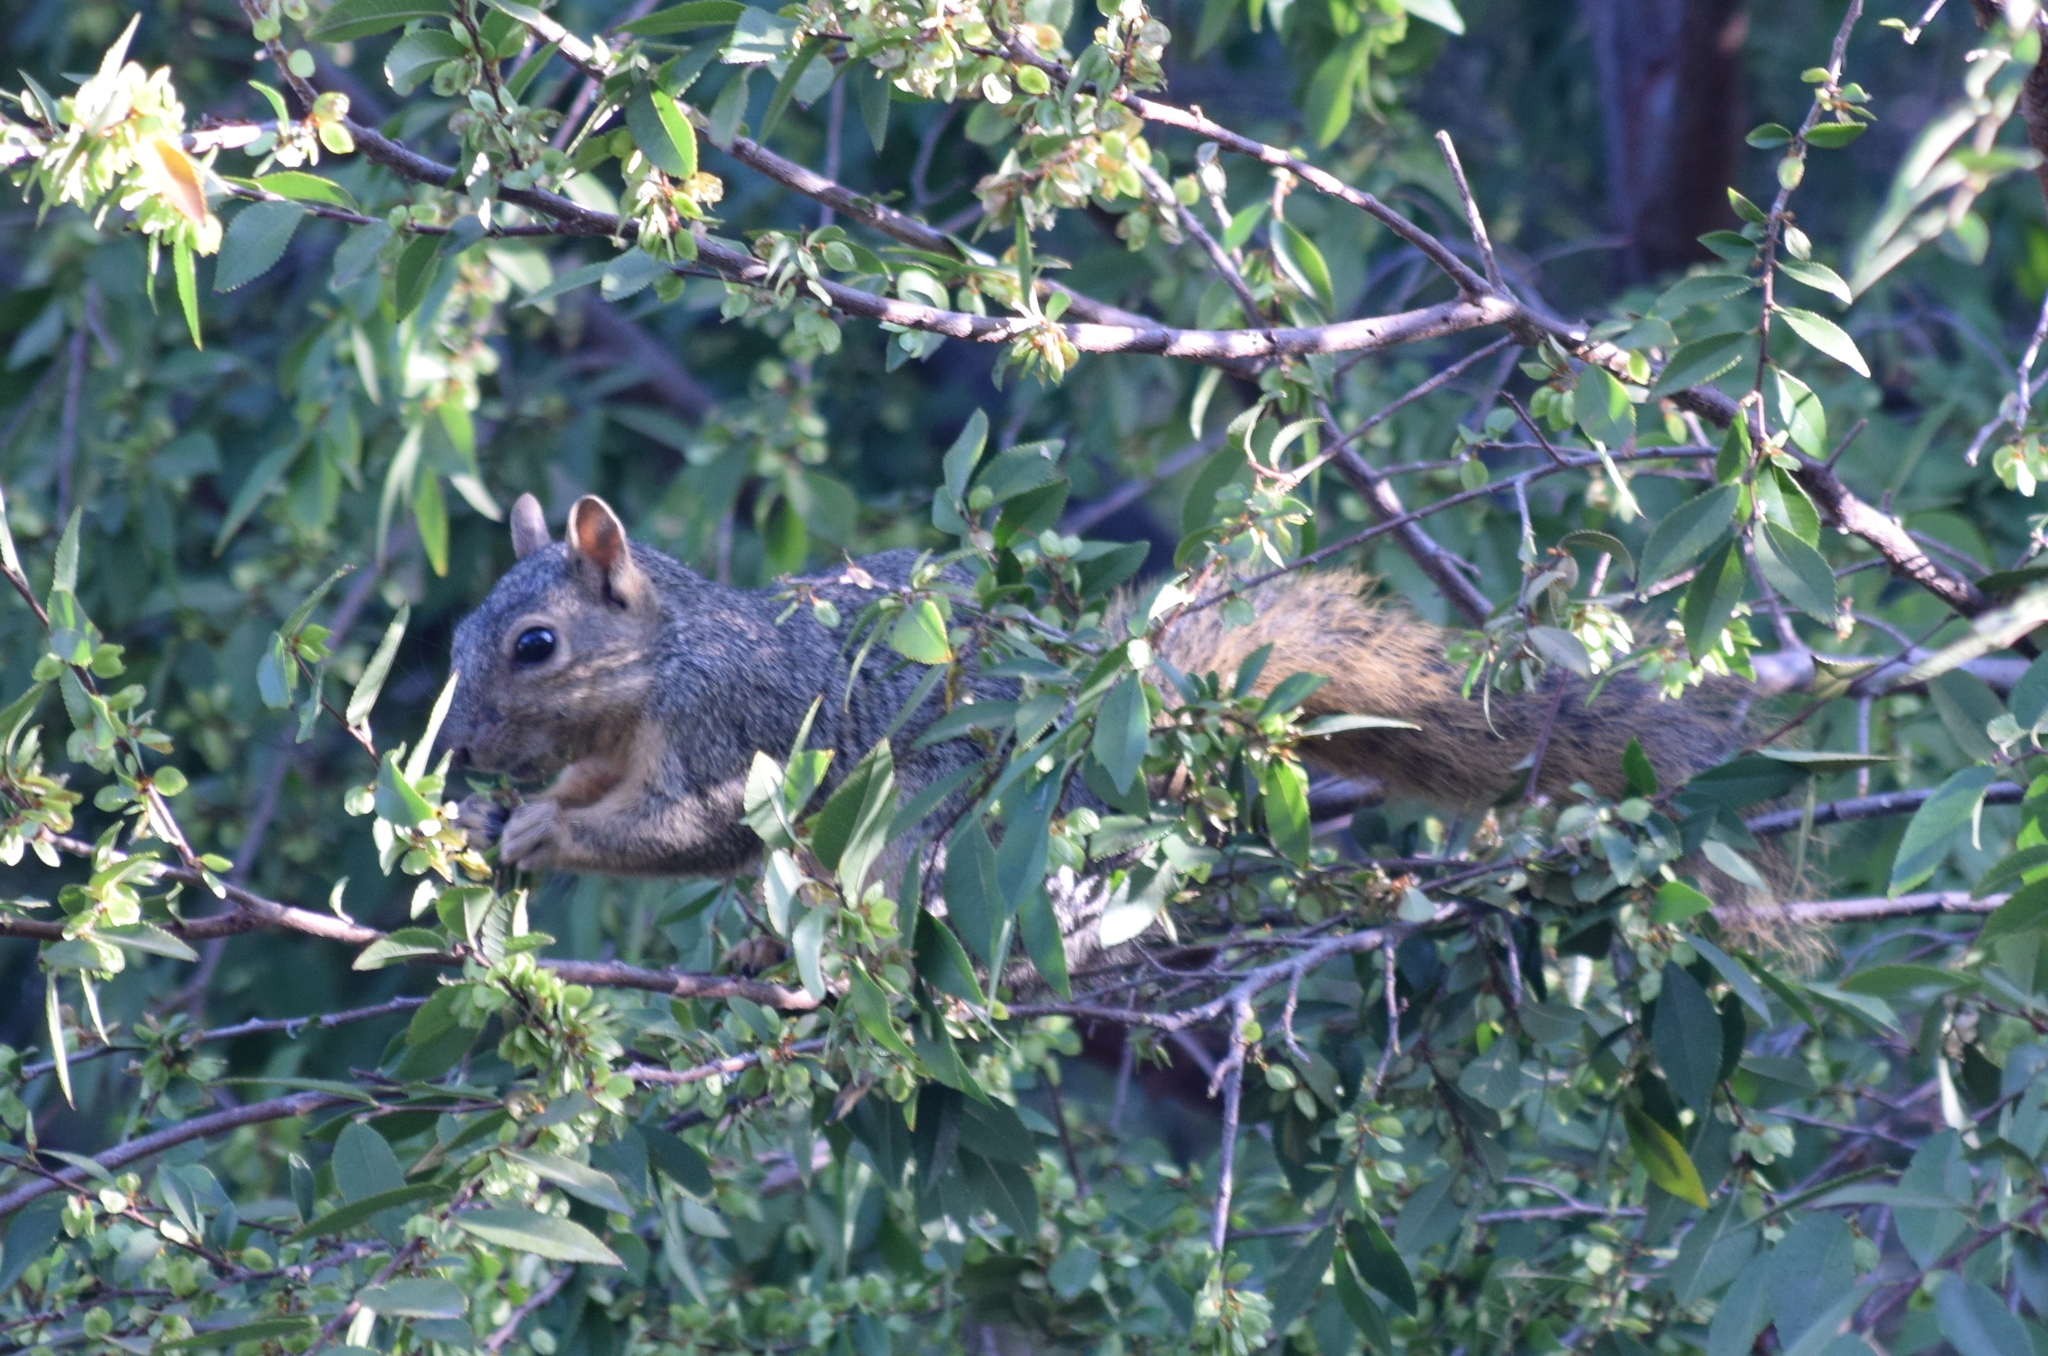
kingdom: Animalia
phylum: Chordata
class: Mammalia
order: Rodentia
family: Sciuridae
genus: Sciurus
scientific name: Sciurus niger
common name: Fox squirrel
